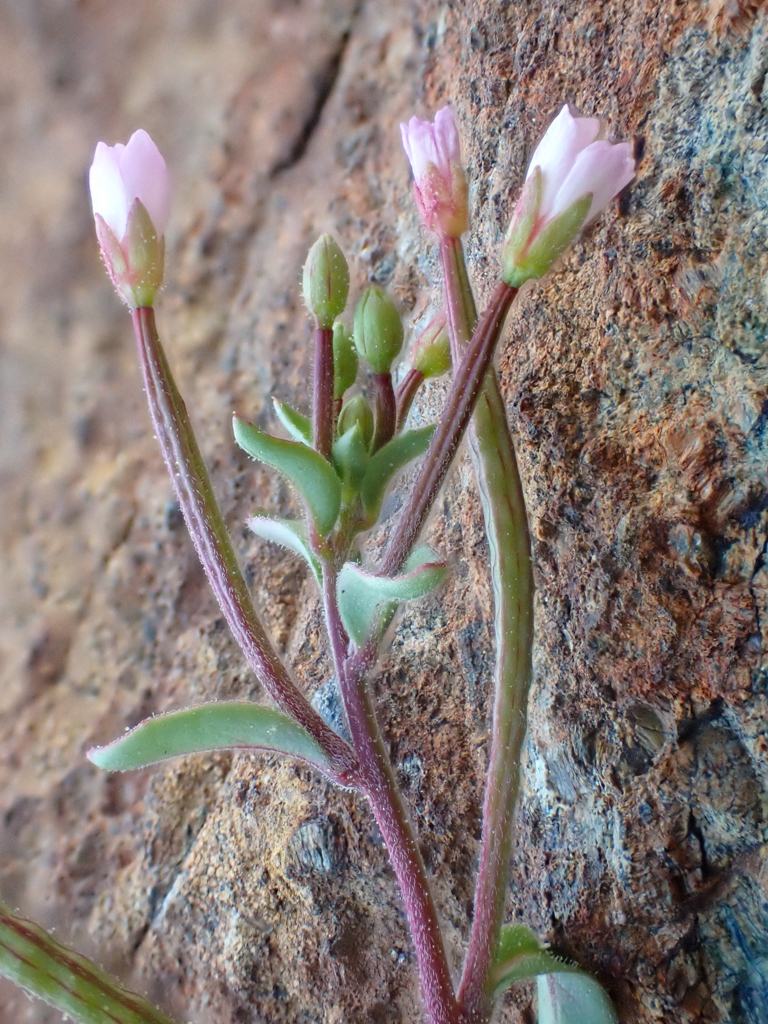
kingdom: Plantae
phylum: Tracheophyta
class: Magnoliopsida
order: Myrtales
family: Onagraceae
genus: Epilobium
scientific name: Epilobium minutum
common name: Chaparral willowherb
